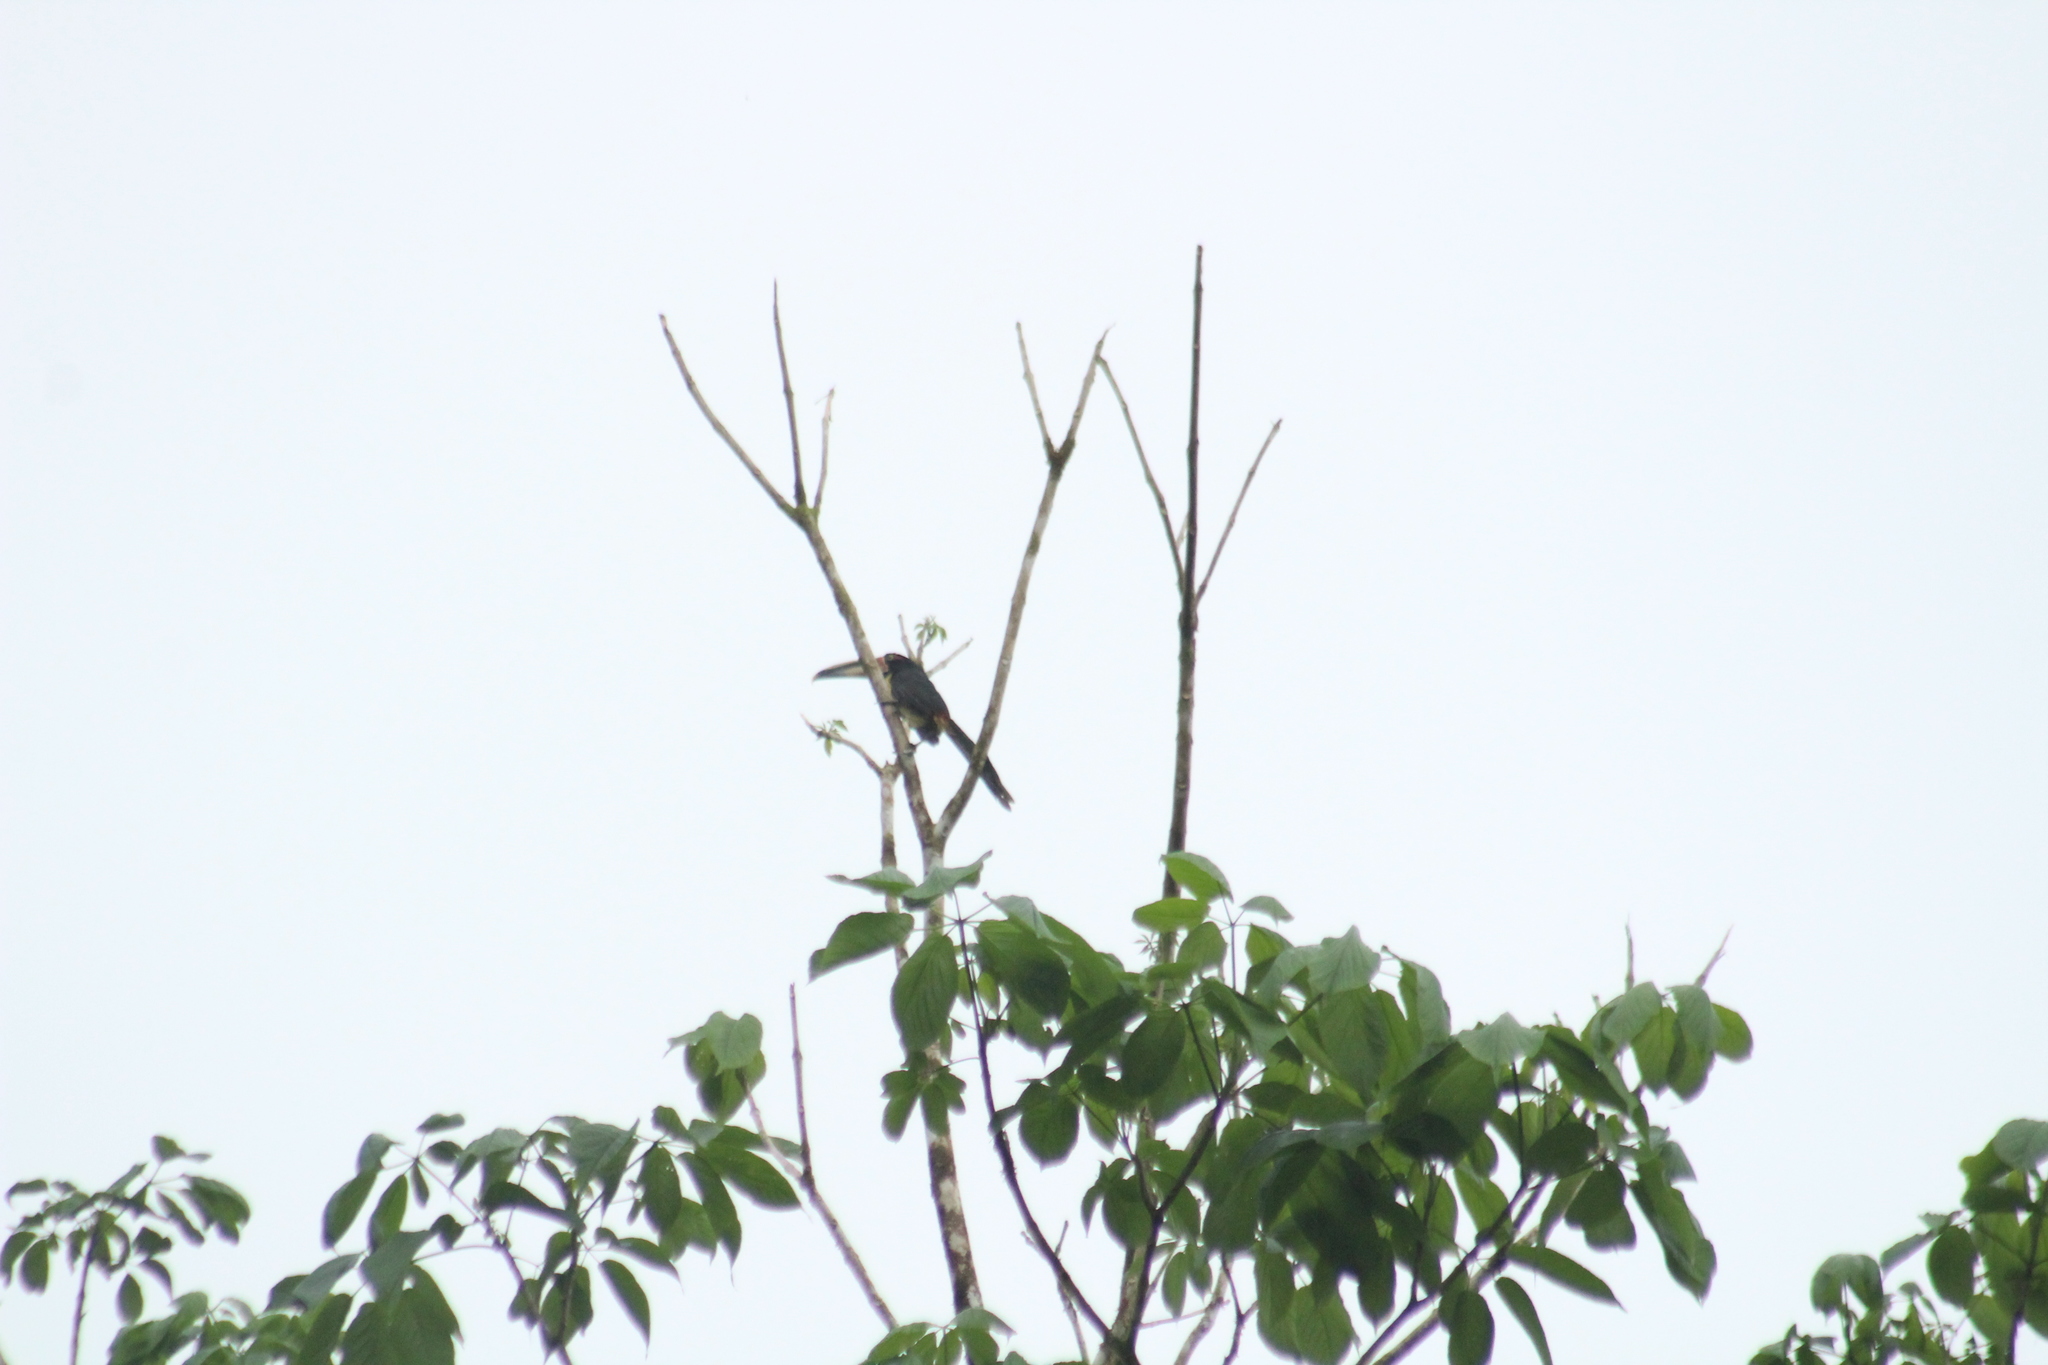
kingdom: Animalia
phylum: Chordata
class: Aves
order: Piciformes
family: Ramphastidae
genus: Pteroglossus
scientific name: Pteroglossus torquatus
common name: Collared aracari
